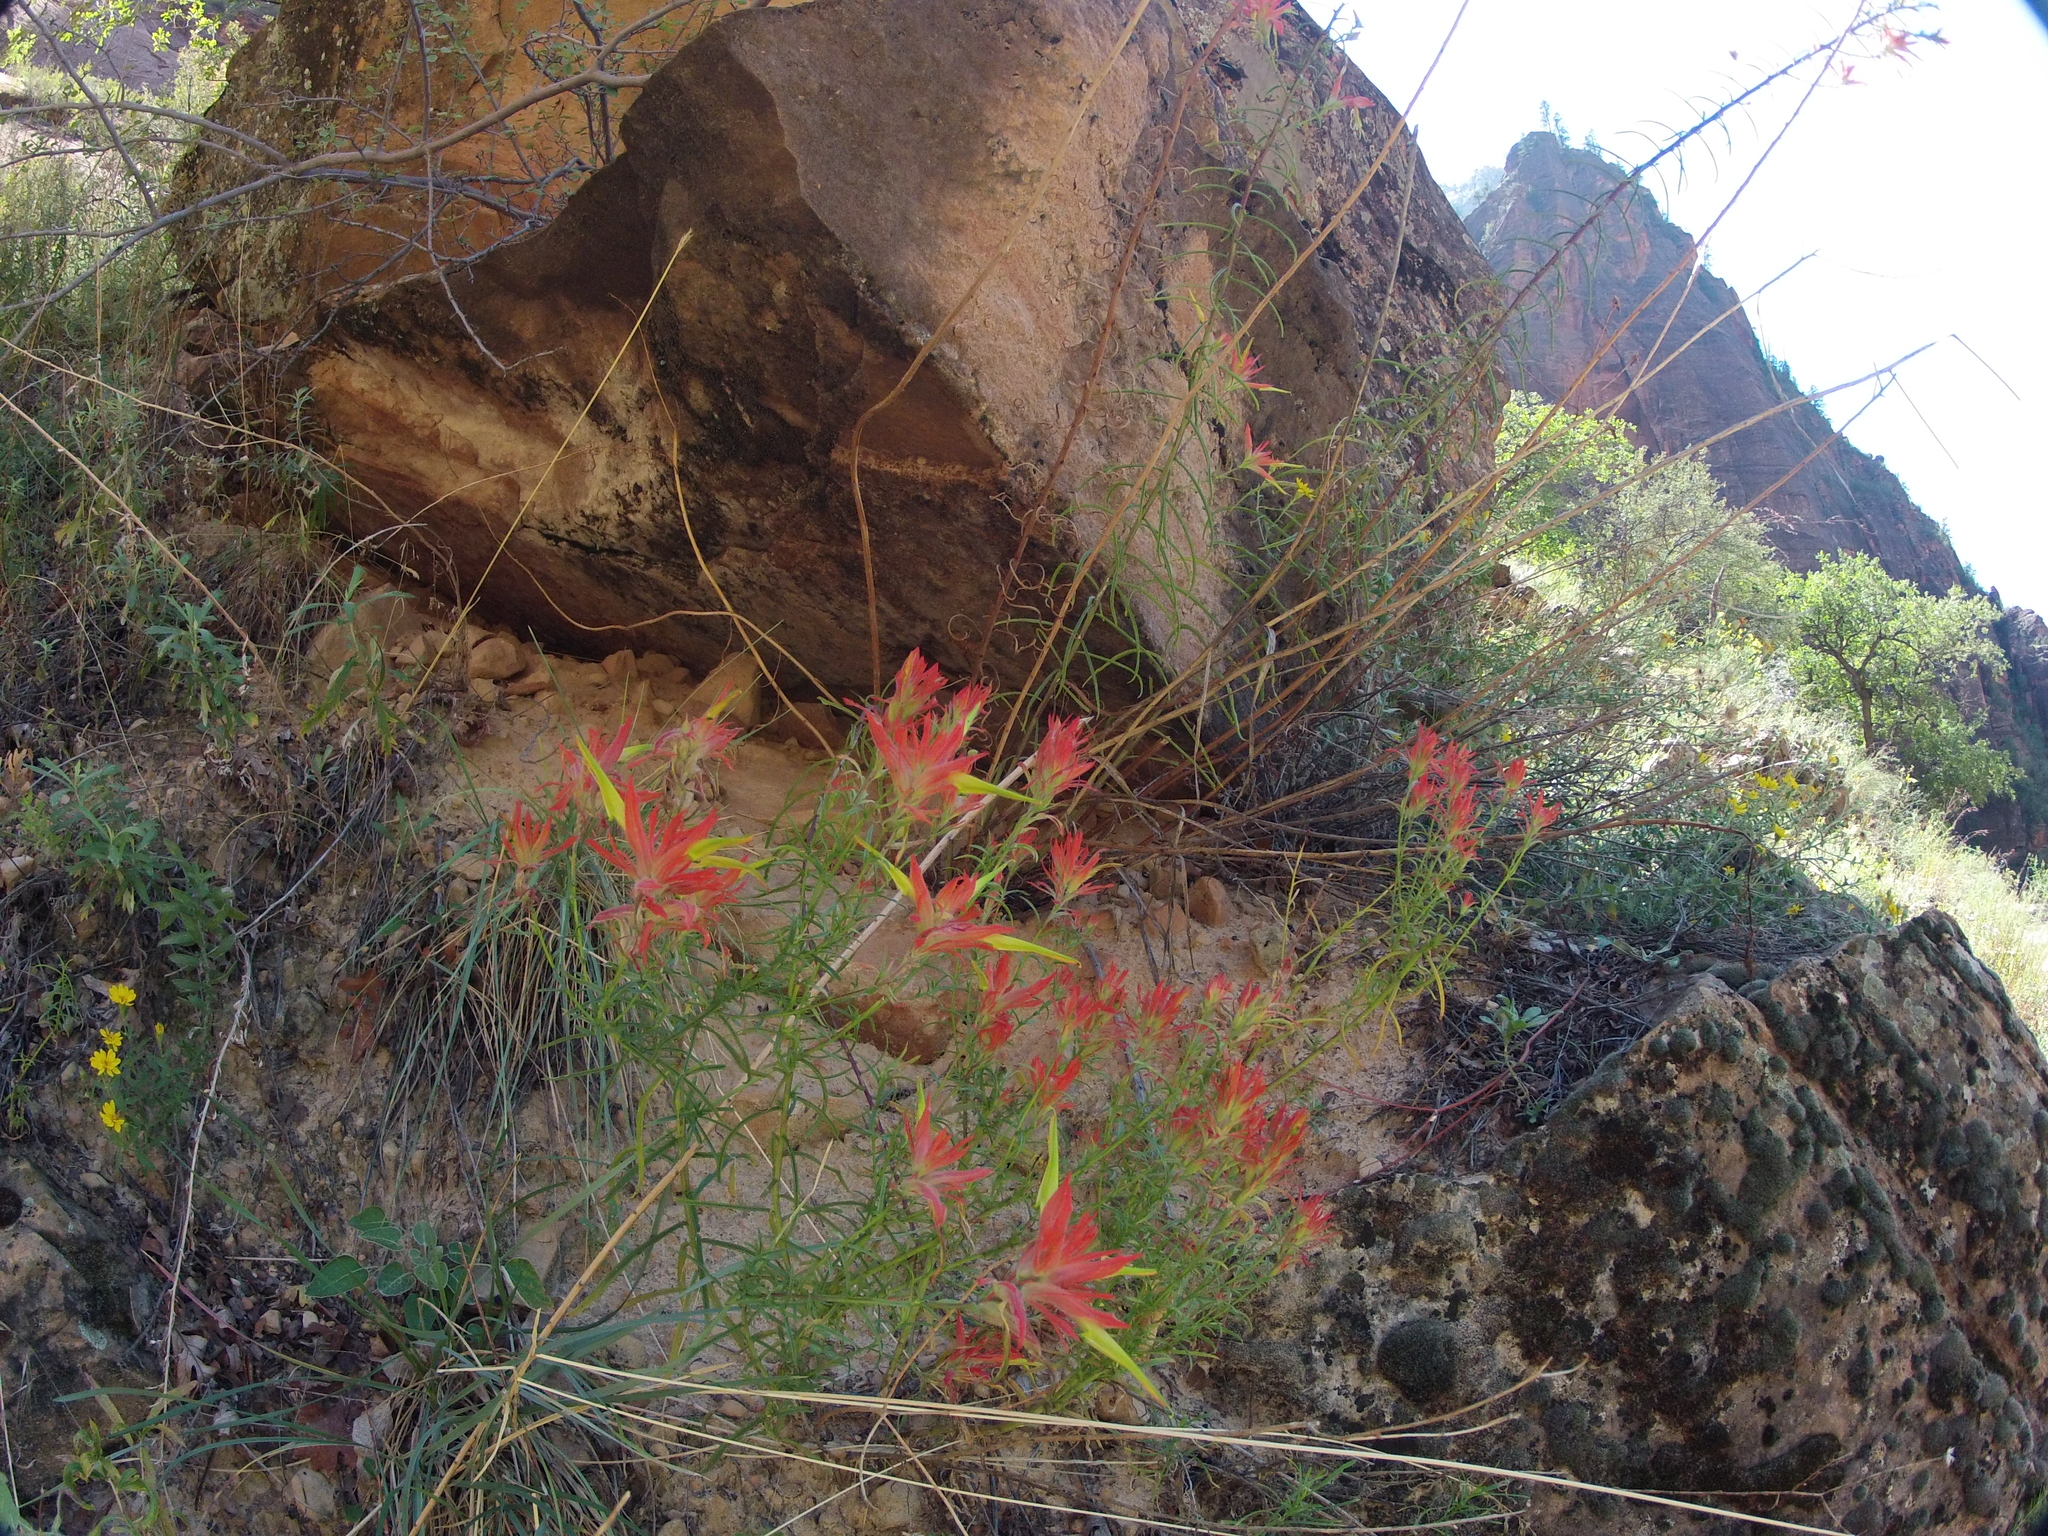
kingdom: Plantae
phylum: Tracheophyta
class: Magnoliopsida
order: Lamiales
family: Orobanchaceae
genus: Castilleja
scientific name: Castilleja linariifolia
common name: Wyoming paintbrush
